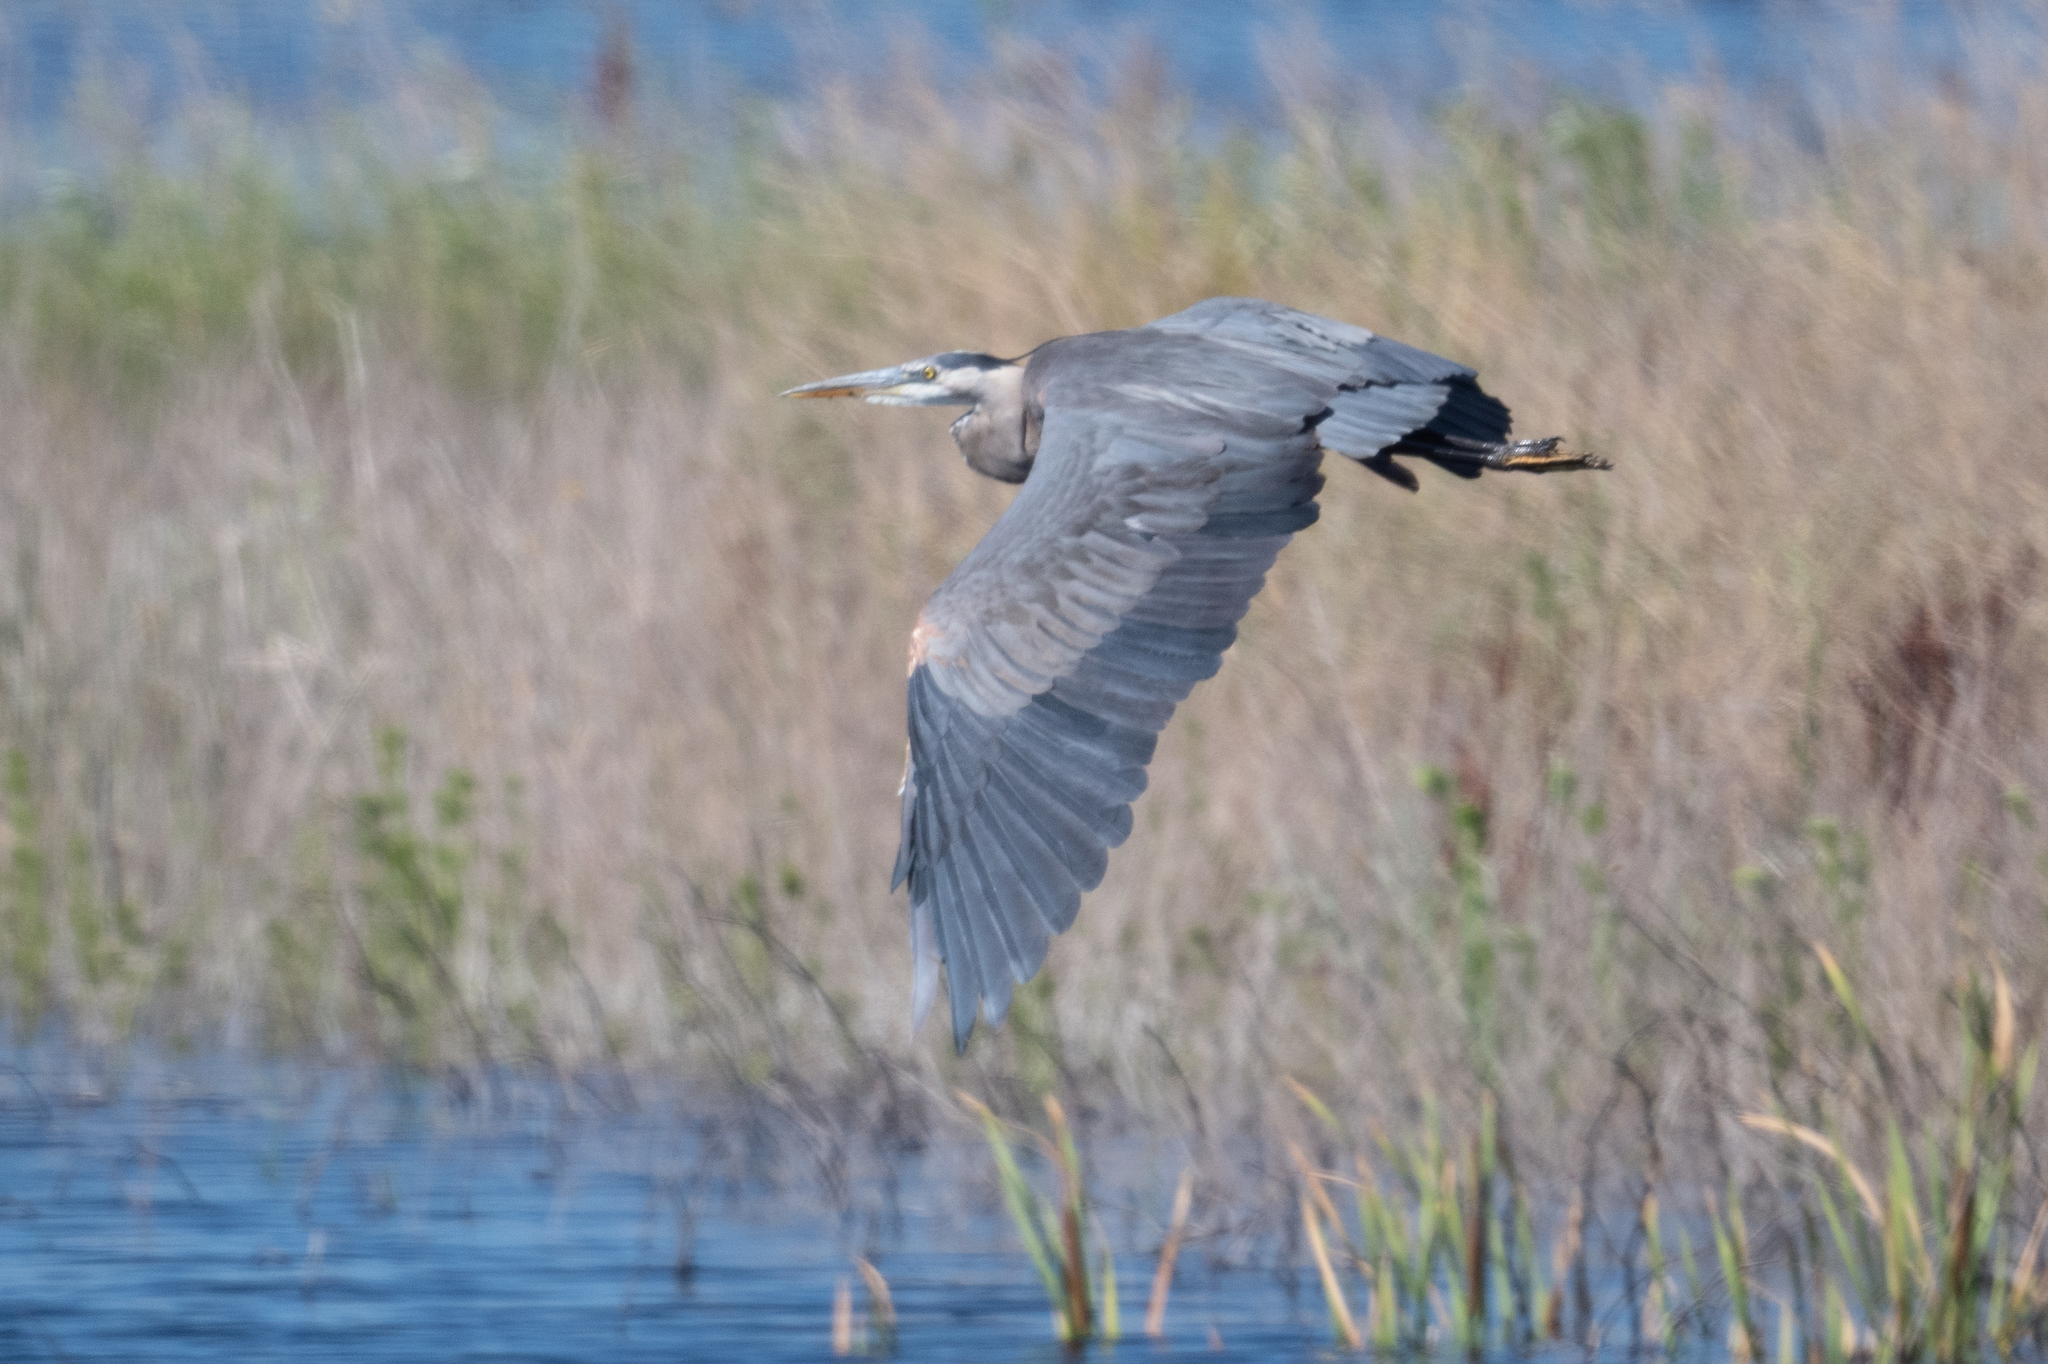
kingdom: Animalia
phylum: Chordata
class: Aves
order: Pelecaniformes
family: Ardeidae
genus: Ardea
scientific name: Ardea herodias
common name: Great blue heron
